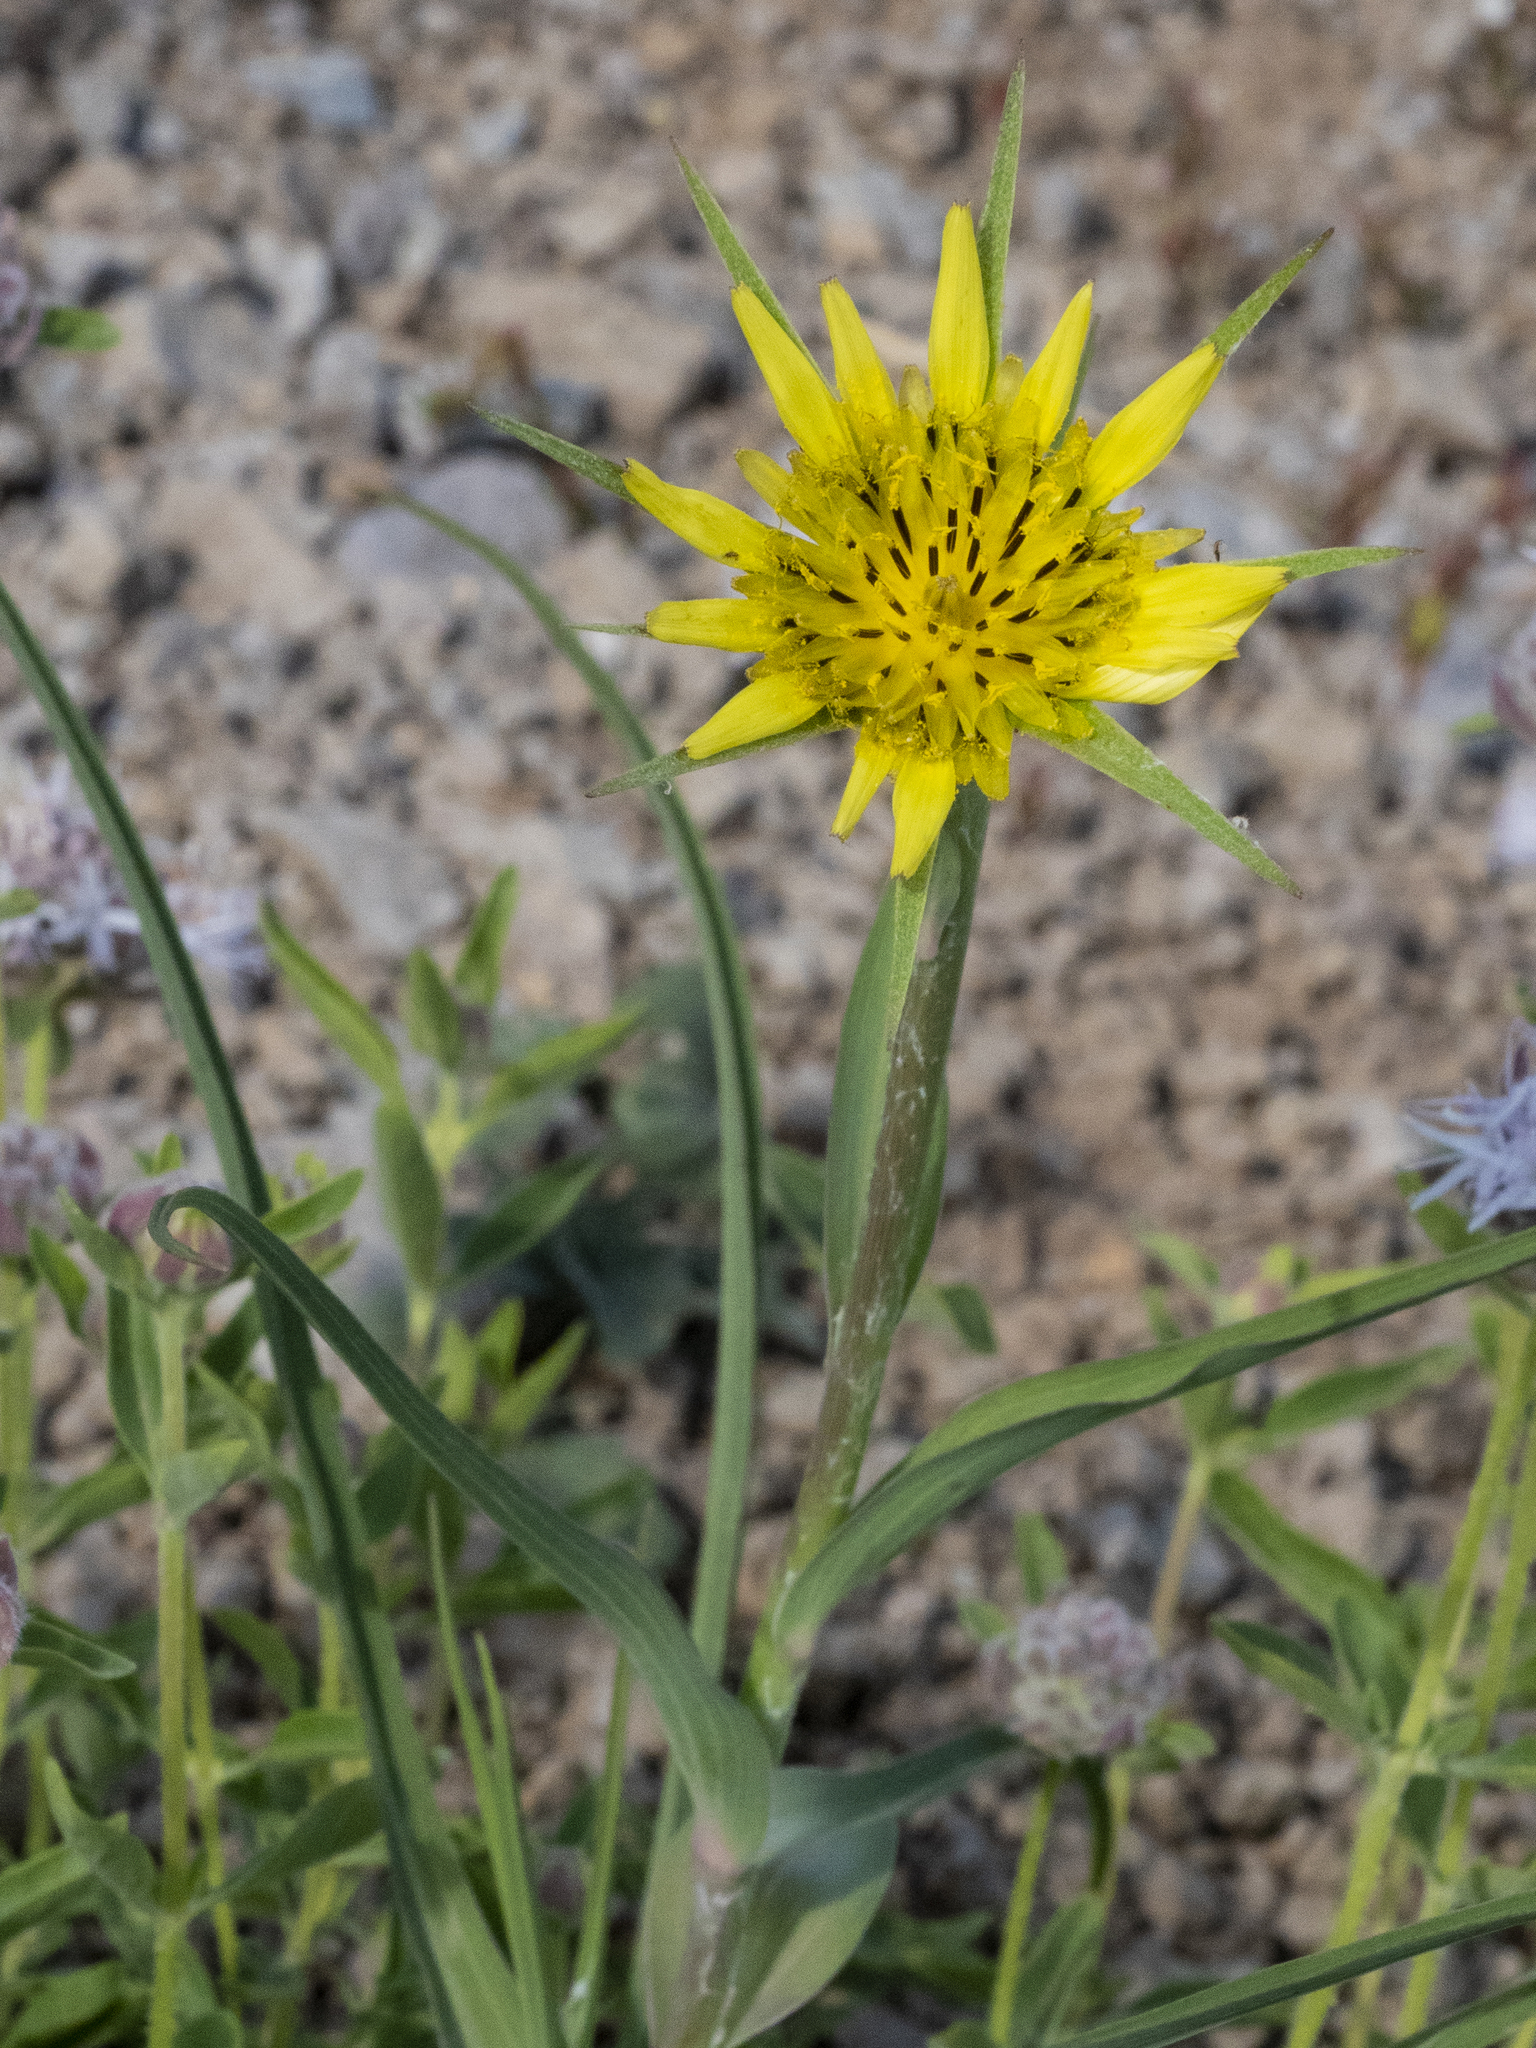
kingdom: Plantae
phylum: Tracheophyta
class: Magnoliopsida
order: Asterales
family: Asteraceae
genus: Tragopogon
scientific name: Tragopogon dubius
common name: Yellow salsify
